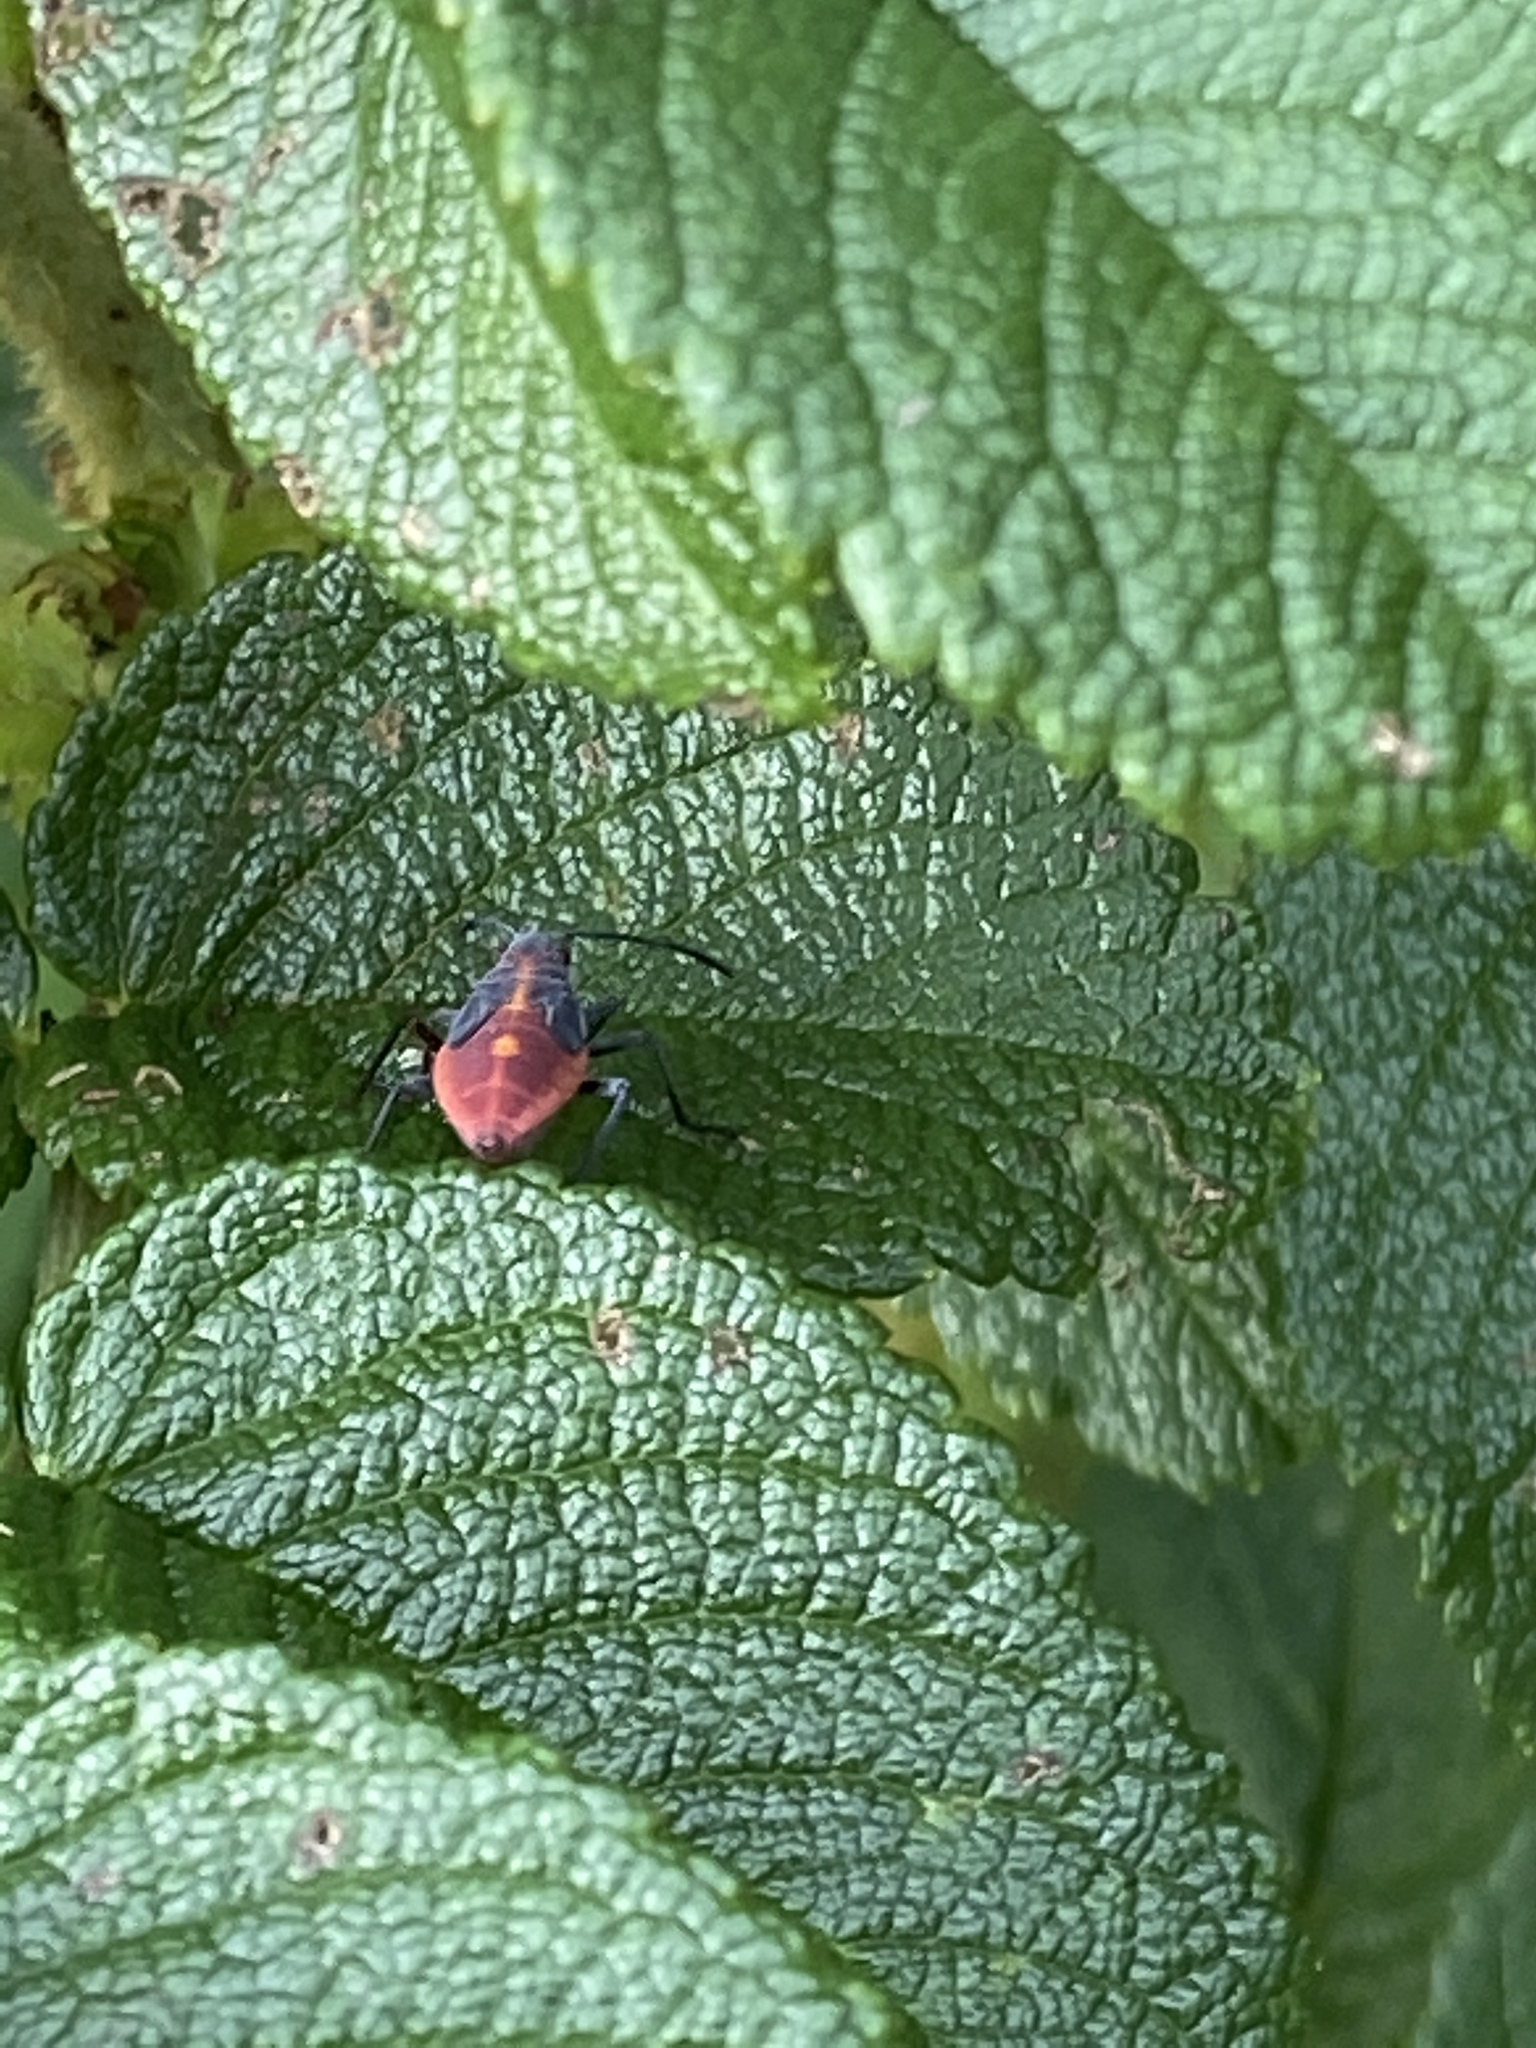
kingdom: Animalia
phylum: Arthropoda
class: Insecta
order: Hemiptera
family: Rhopalidae
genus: Boisea
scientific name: Boisea trivittata
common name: Boxelder bug
